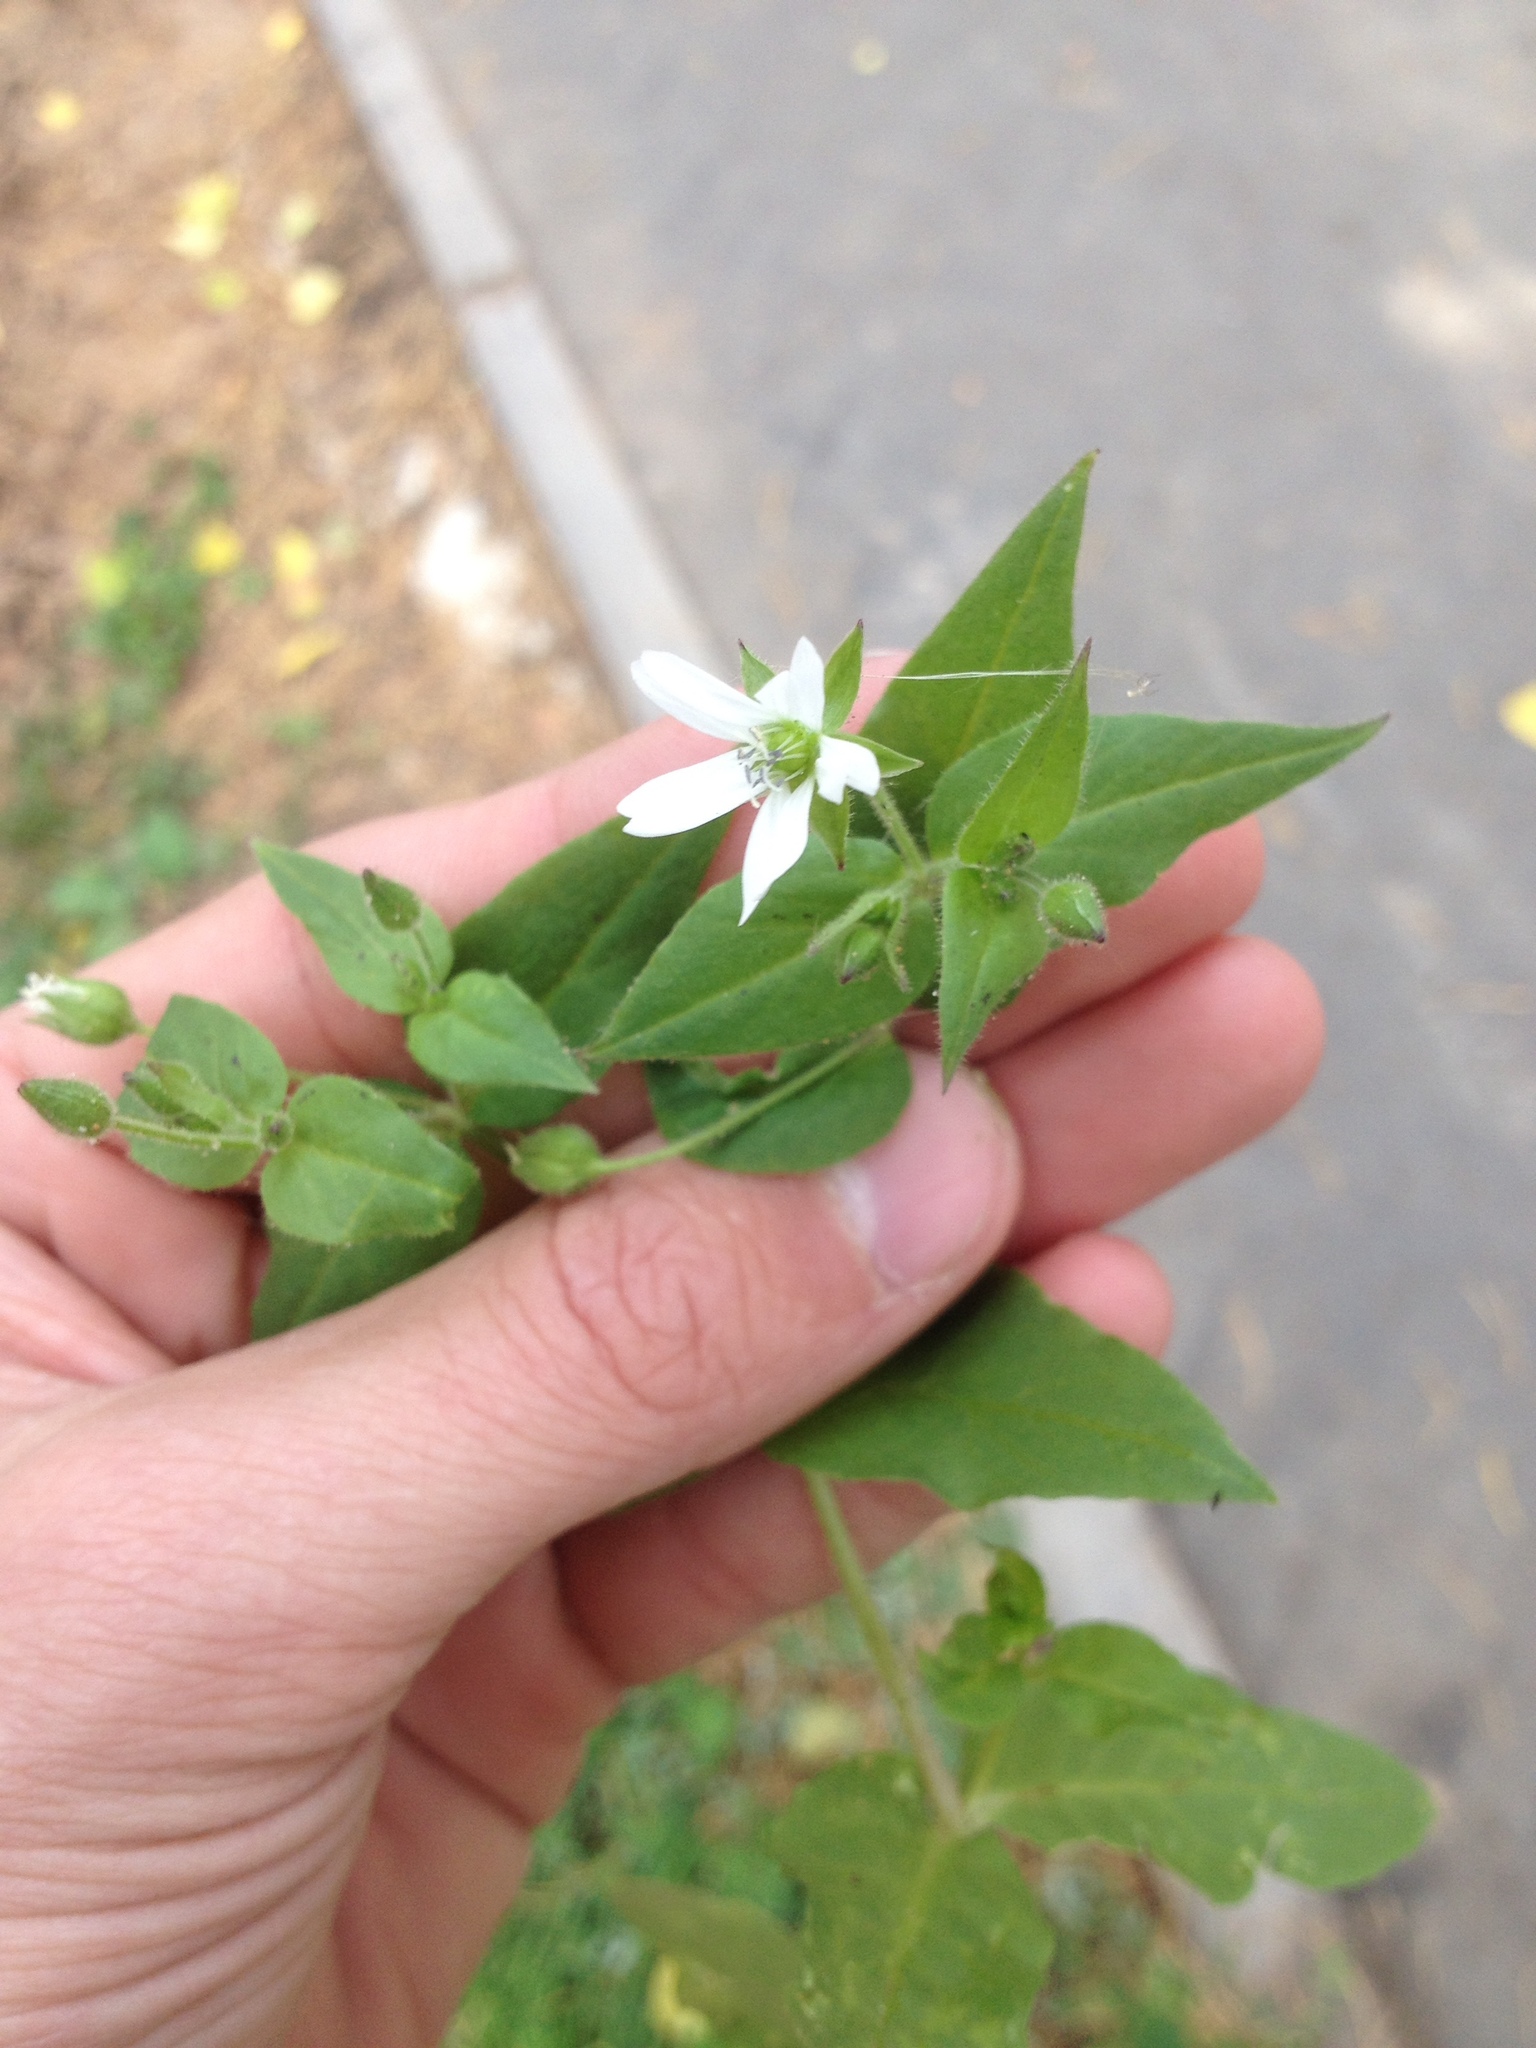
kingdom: Plantae
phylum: Tracheophyta
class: Magnoliopsida
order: Caryophyllales
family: Caryophyllaceae
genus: Stellaria
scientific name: Stellaria aquatica
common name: Water chickweed
